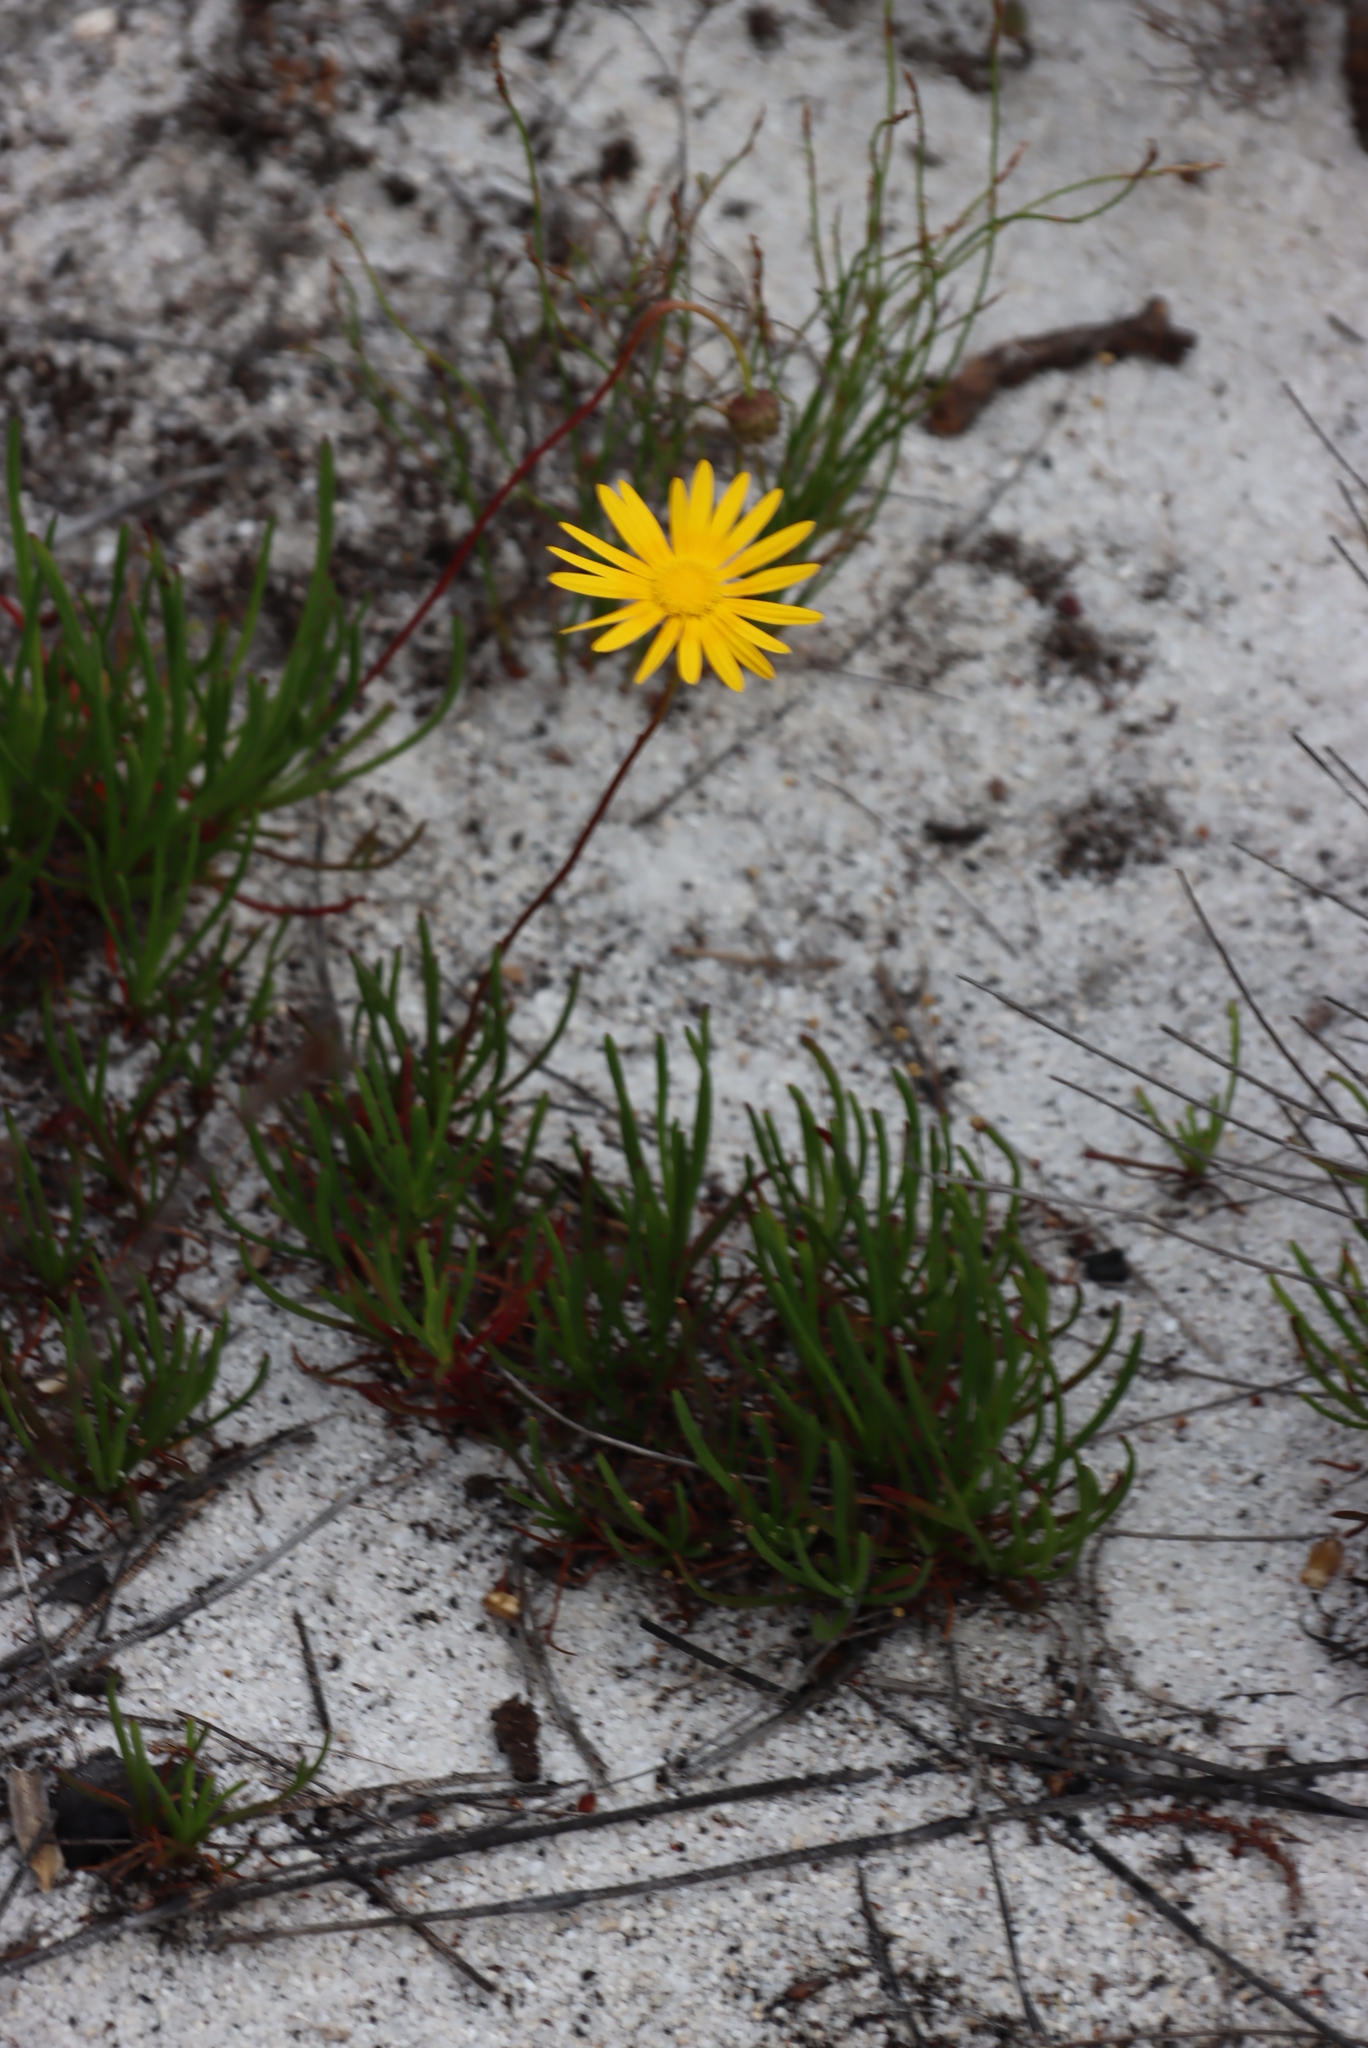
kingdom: Plantae
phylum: Tracheophyta
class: Magnoliopsida
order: Asterales
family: Asteraceae
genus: Ursinia
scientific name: Ursinia tenuifolia
